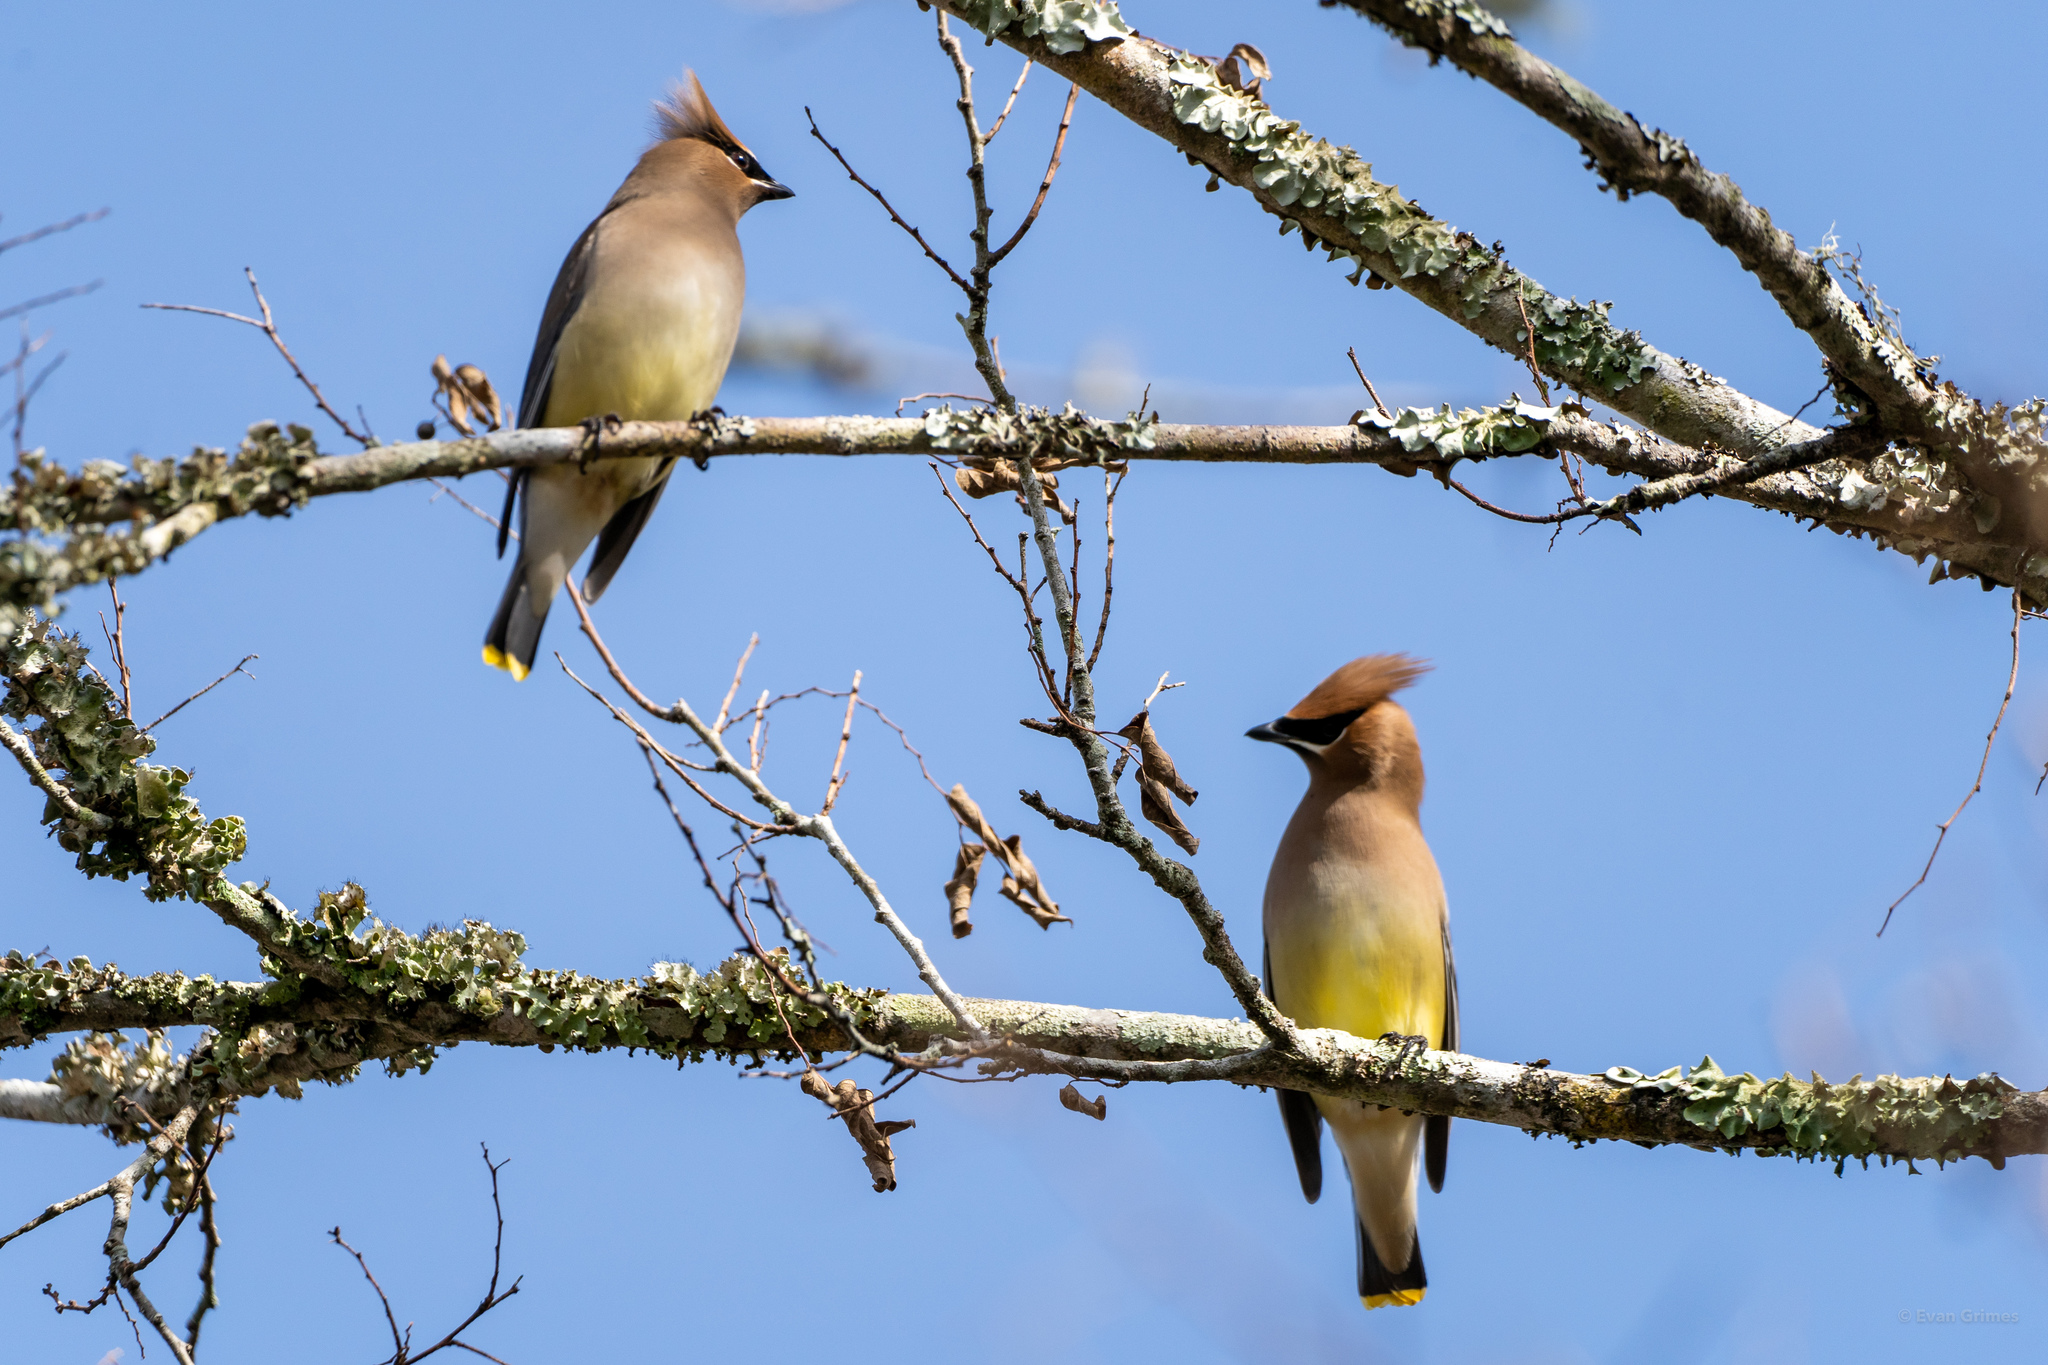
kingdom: Animalia
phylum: Chordata
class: Aves
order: Passeriformes
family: Bombycillidae
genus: Bombycilla
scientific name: Bombycilla cedrorum
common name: Cedar waxwing
